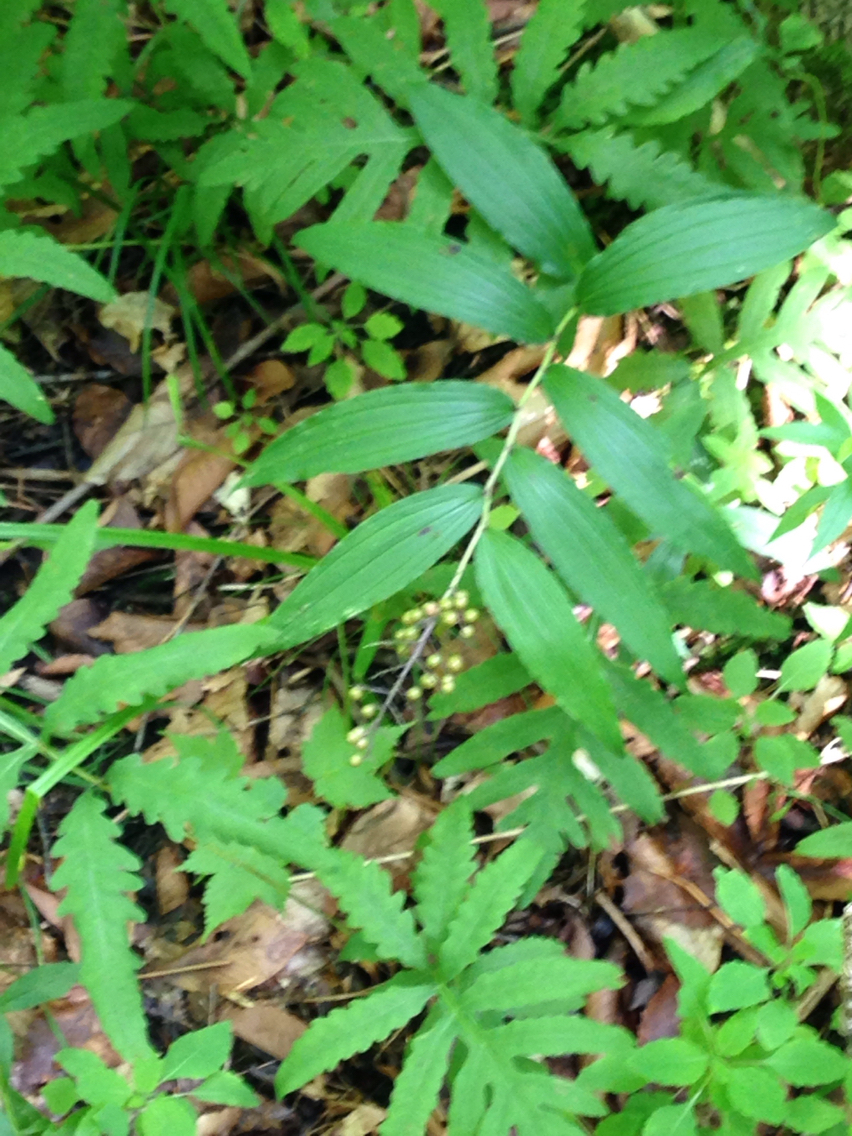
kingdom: Plantae
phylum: Tracheophyta
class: Liliopsida
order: Asparagales
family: Asparagaceae
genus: Maianthemum
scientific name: Maianthemum racemosum
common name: False spikenard
